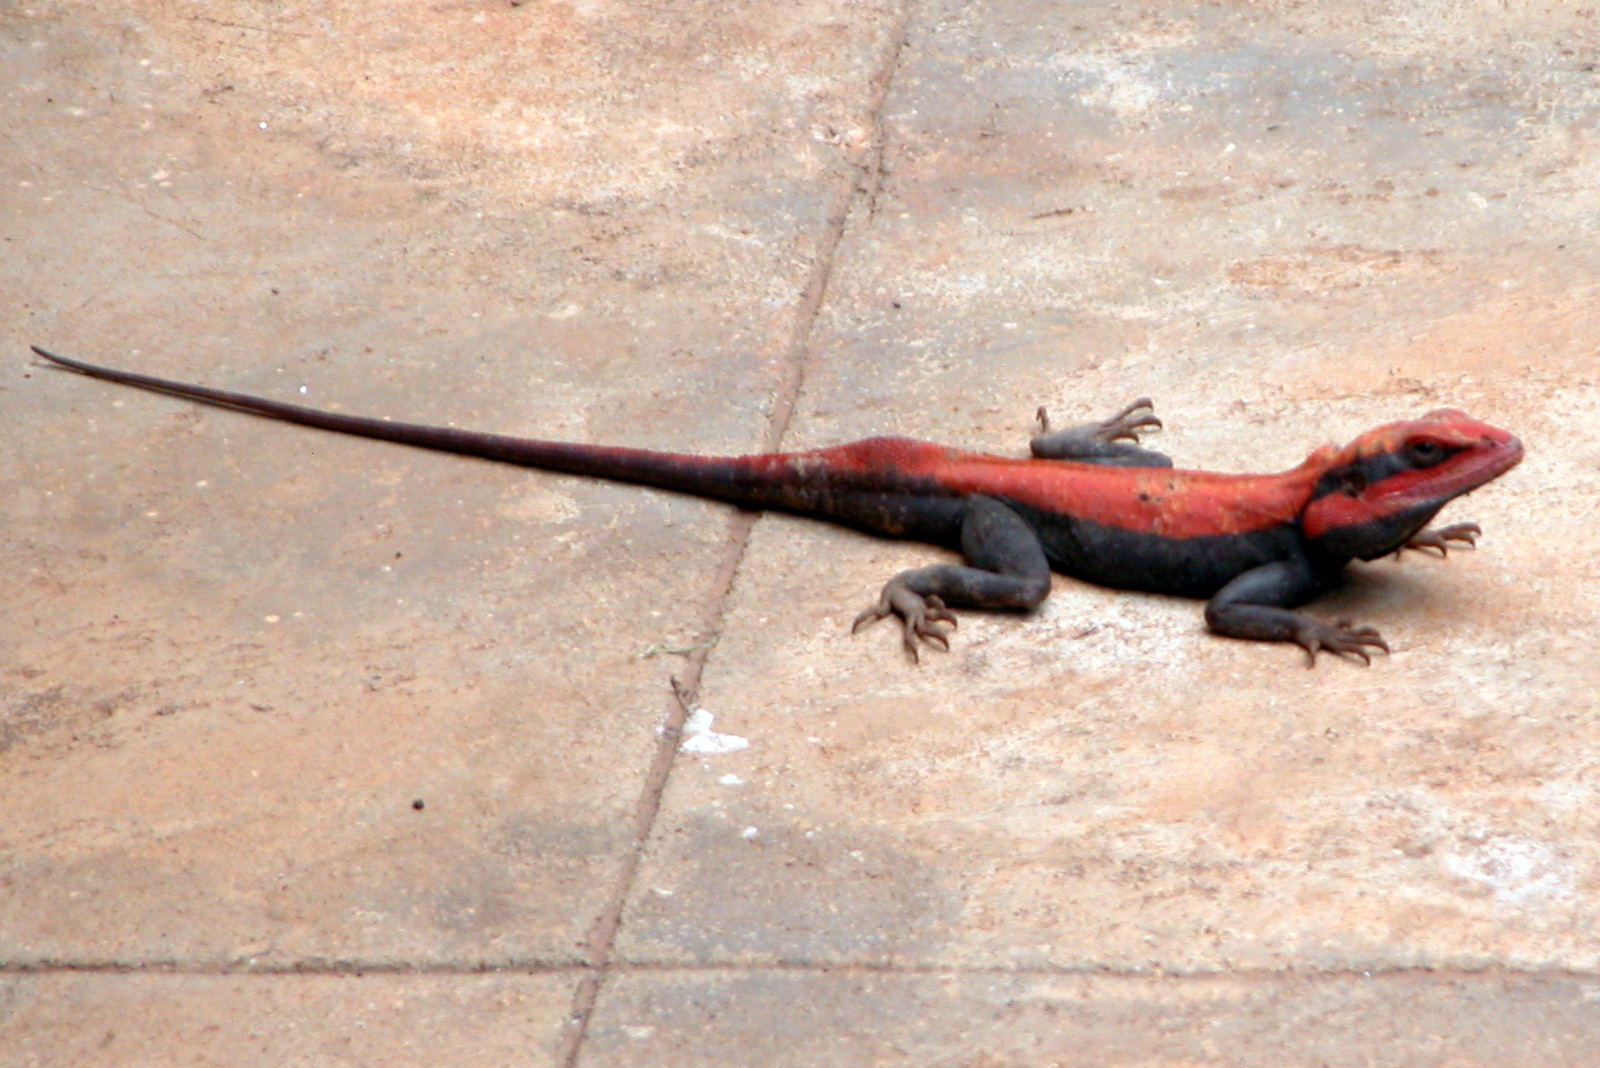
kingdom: Animalia
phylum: Chordata
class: Squamata
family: Agamidae
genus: Psammophilus
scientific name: Psammophilus dorsalis
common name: South indian rock agama
